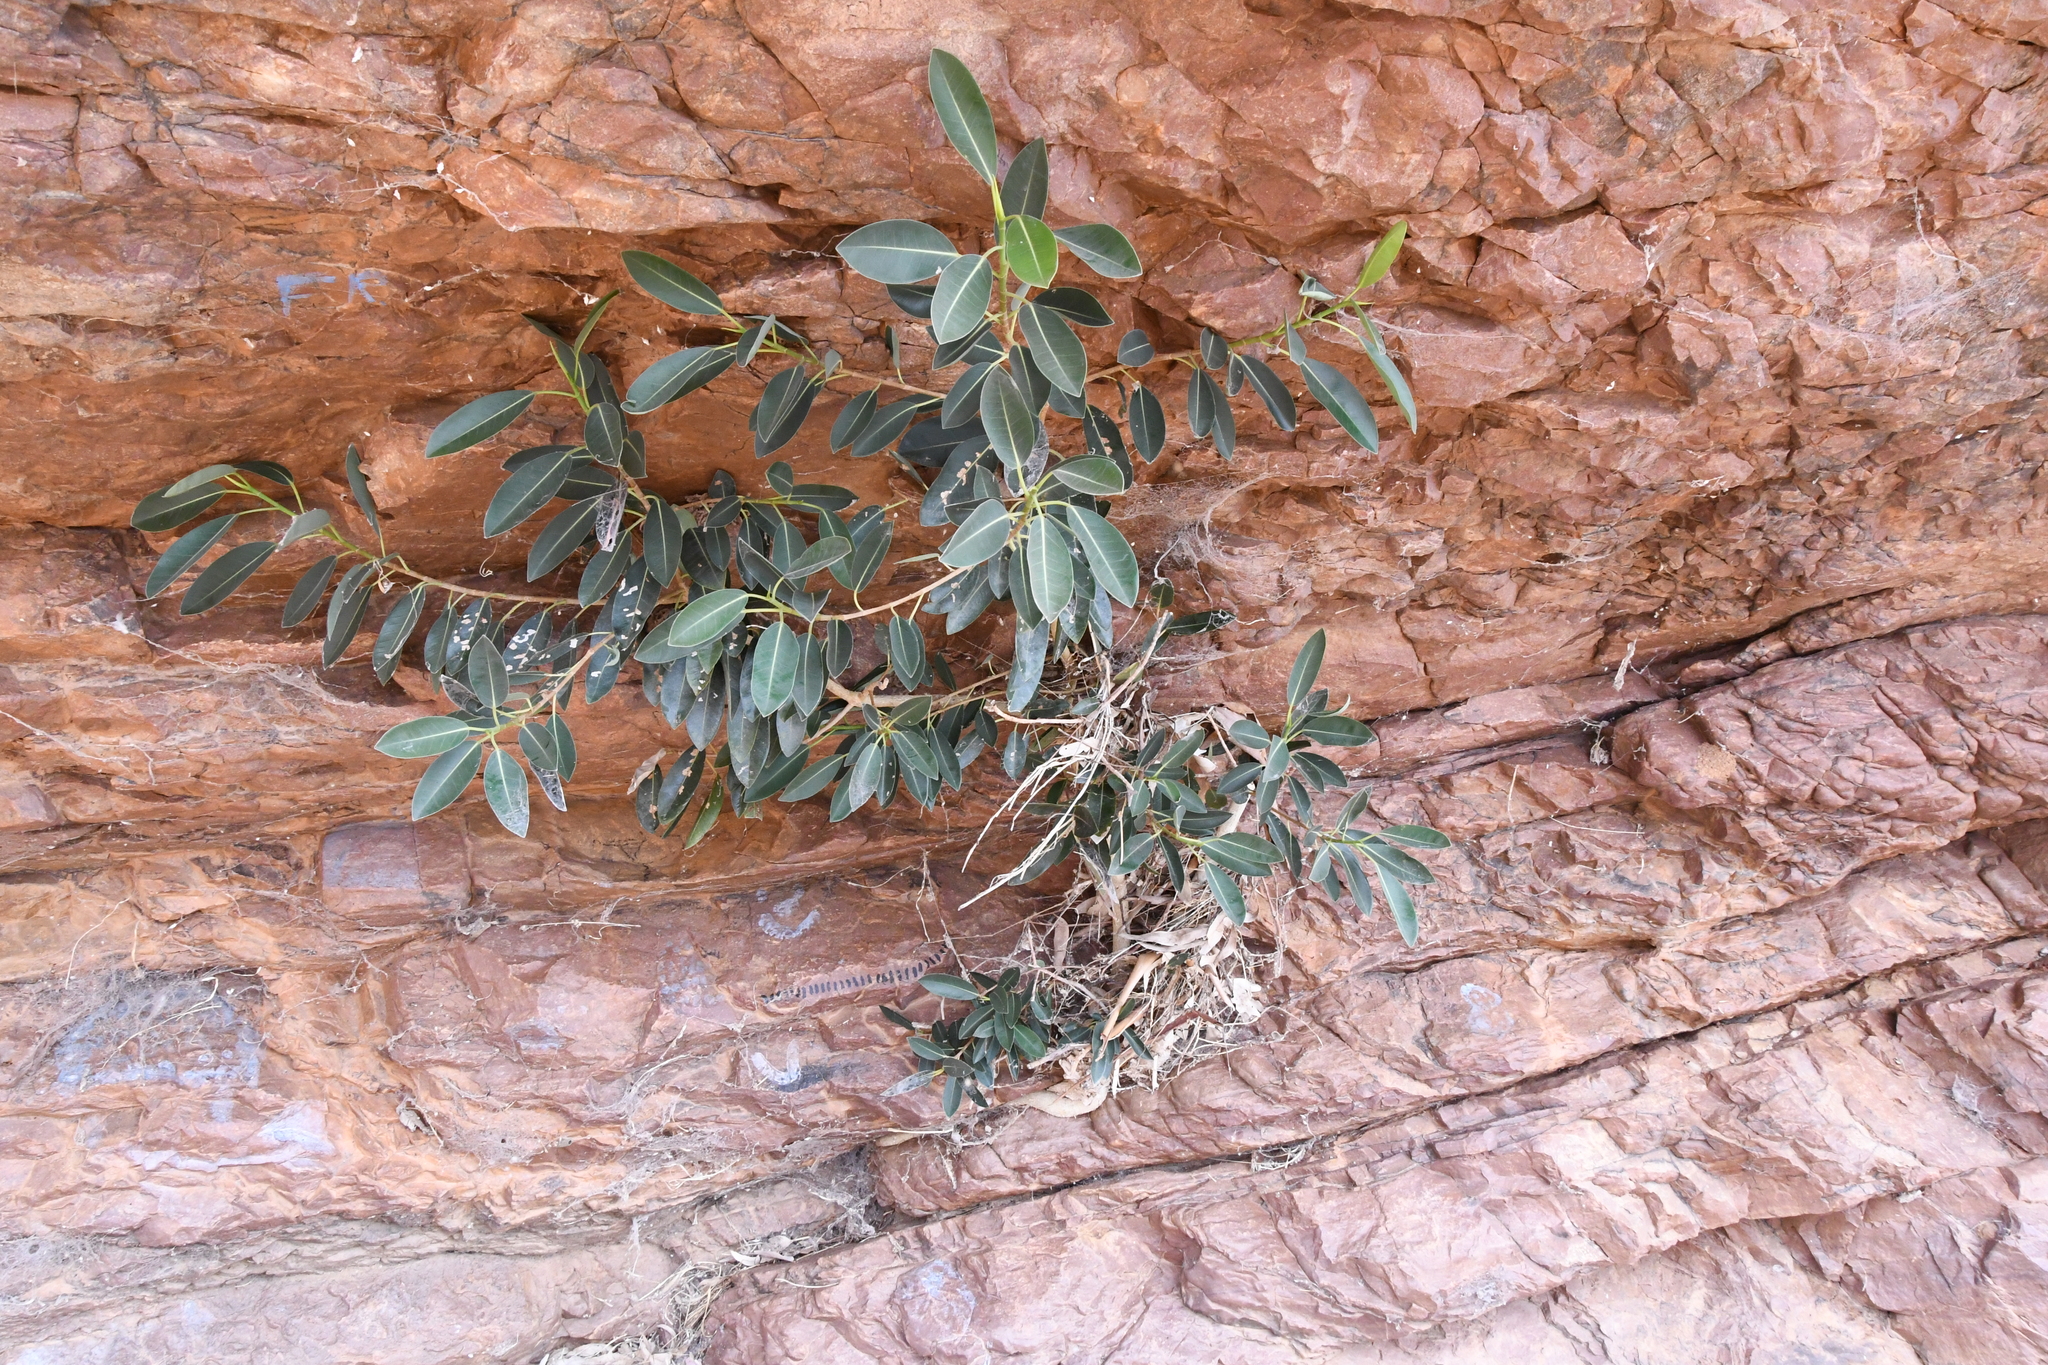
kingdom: Plantae
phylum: Tracheophyta
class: Magnoliopsida
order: Rosales
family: Moraceae
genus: Ficus
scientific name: Ficus brachypoda
